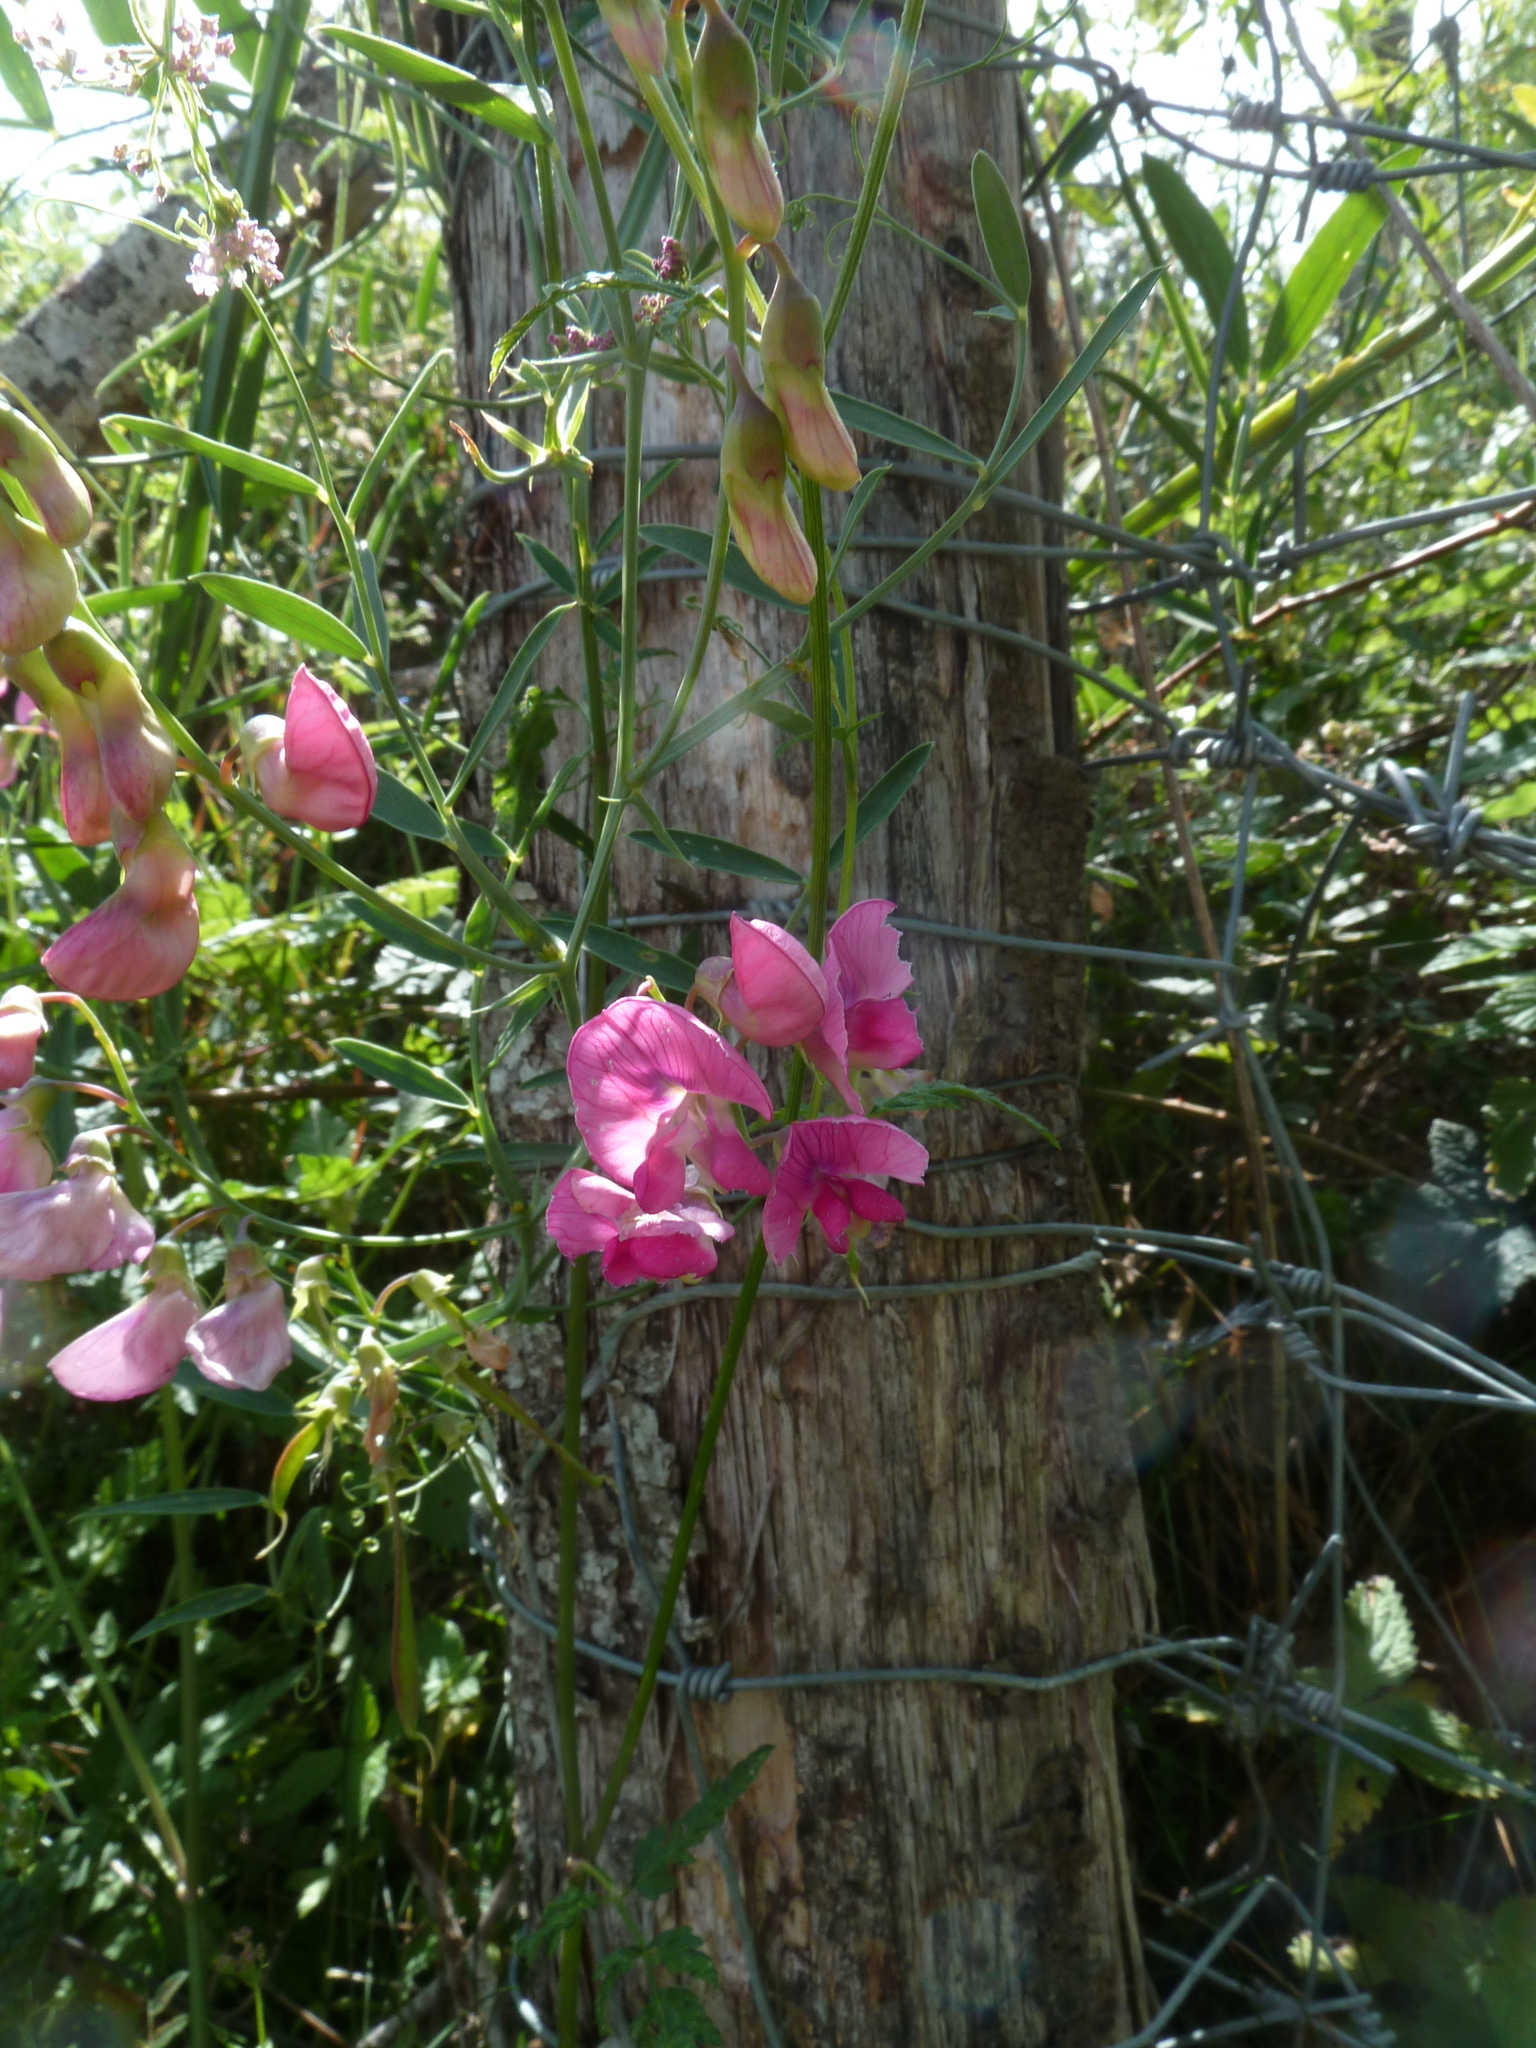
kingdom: Plantae
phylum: Tracheophyta
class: Magnoliopsida
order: Fabales
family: Fabaceae
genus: Lathyrus
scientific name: Lathyrus sylvestris
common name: Flat pea
